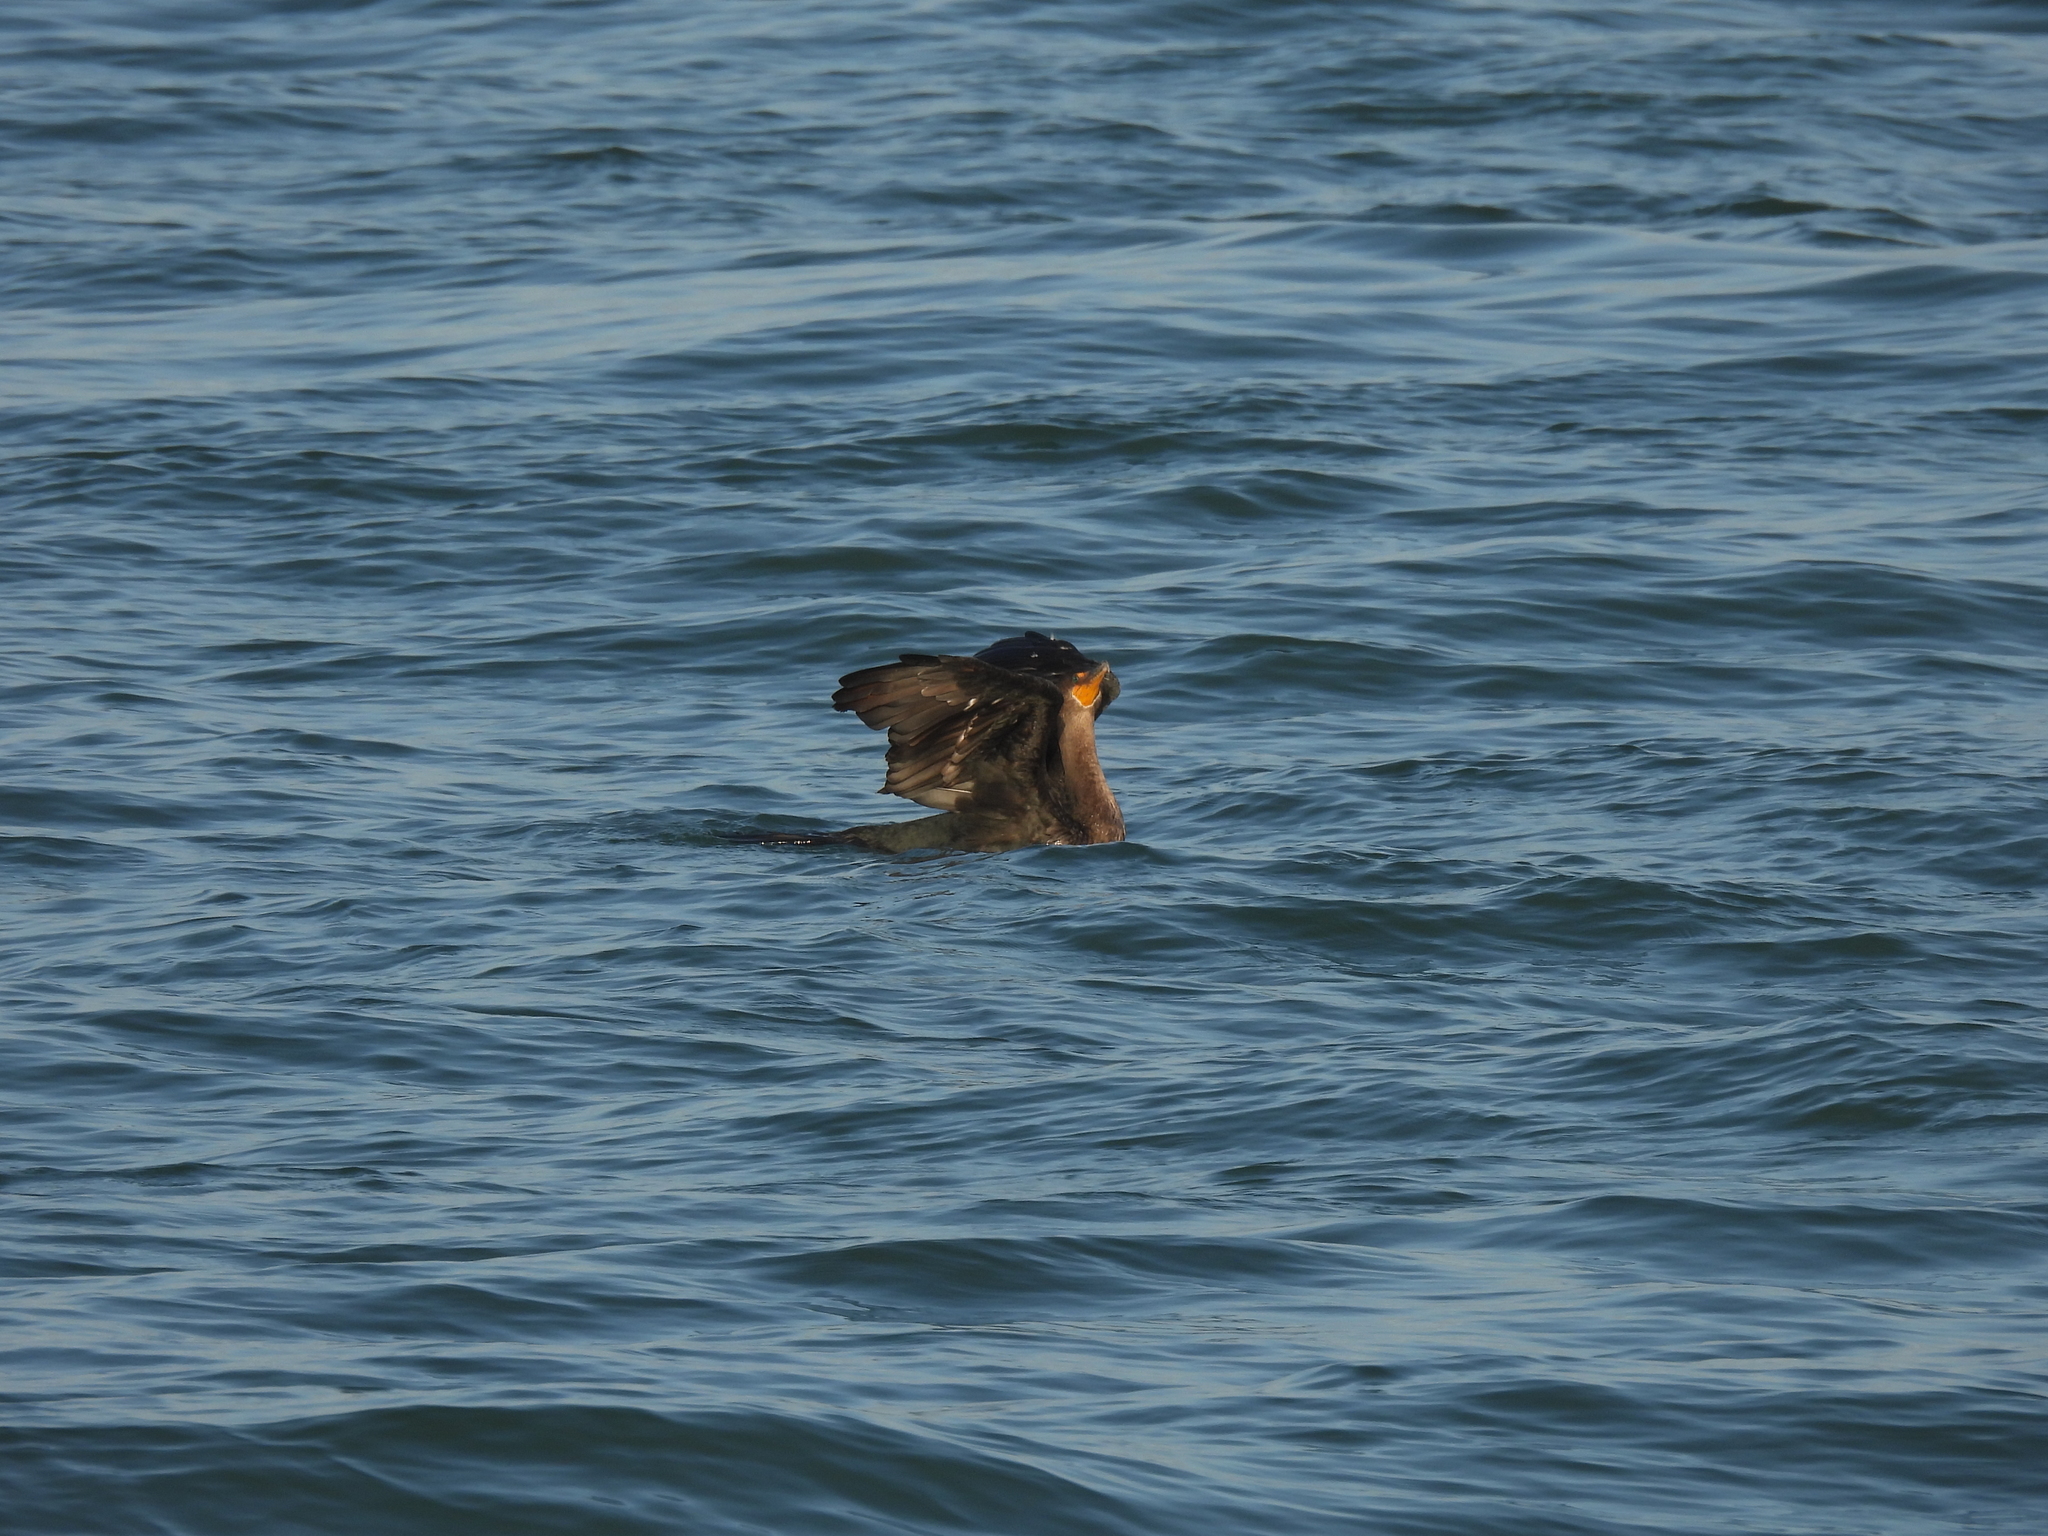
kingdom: Animalia
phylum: Chordata
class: Aves
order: Suliformes
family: Phalacrocoracidae
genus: Phalacrocorax
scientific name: Phalacrocorax auritus
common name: Double-crested cormorant
